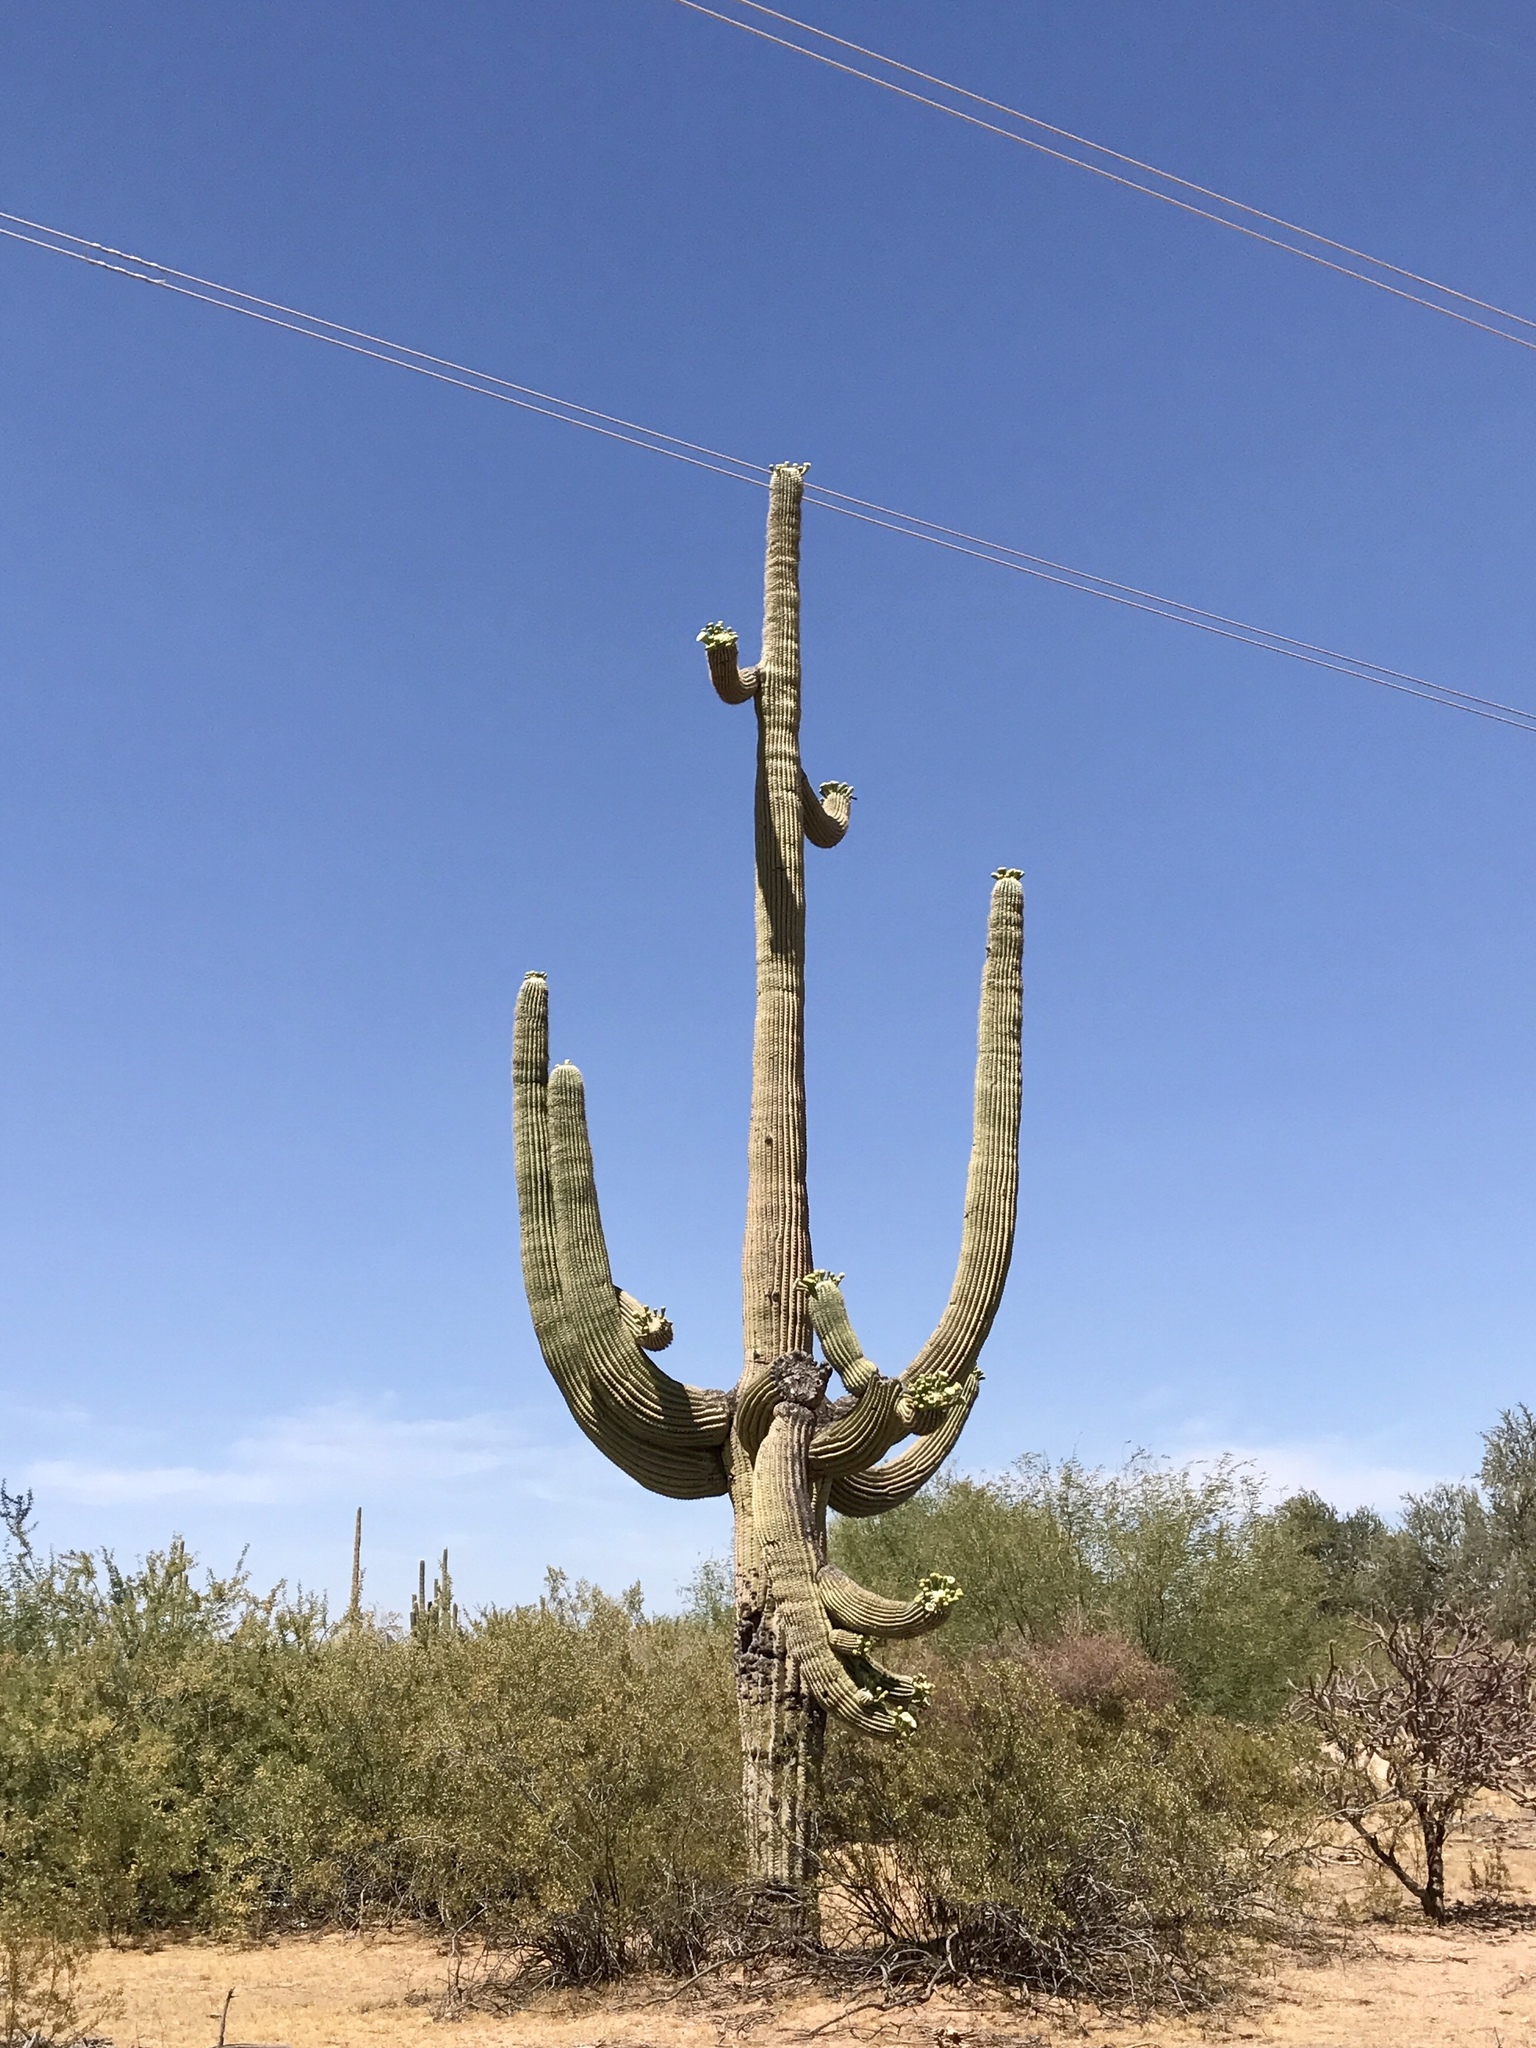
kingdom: Plantae
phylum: Tracheophyta
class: Magnoliopsida
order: Caryophyllales
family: Cactaceae
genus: Carnegiea
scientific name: Carnegiea gigantea
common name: Saguaro
